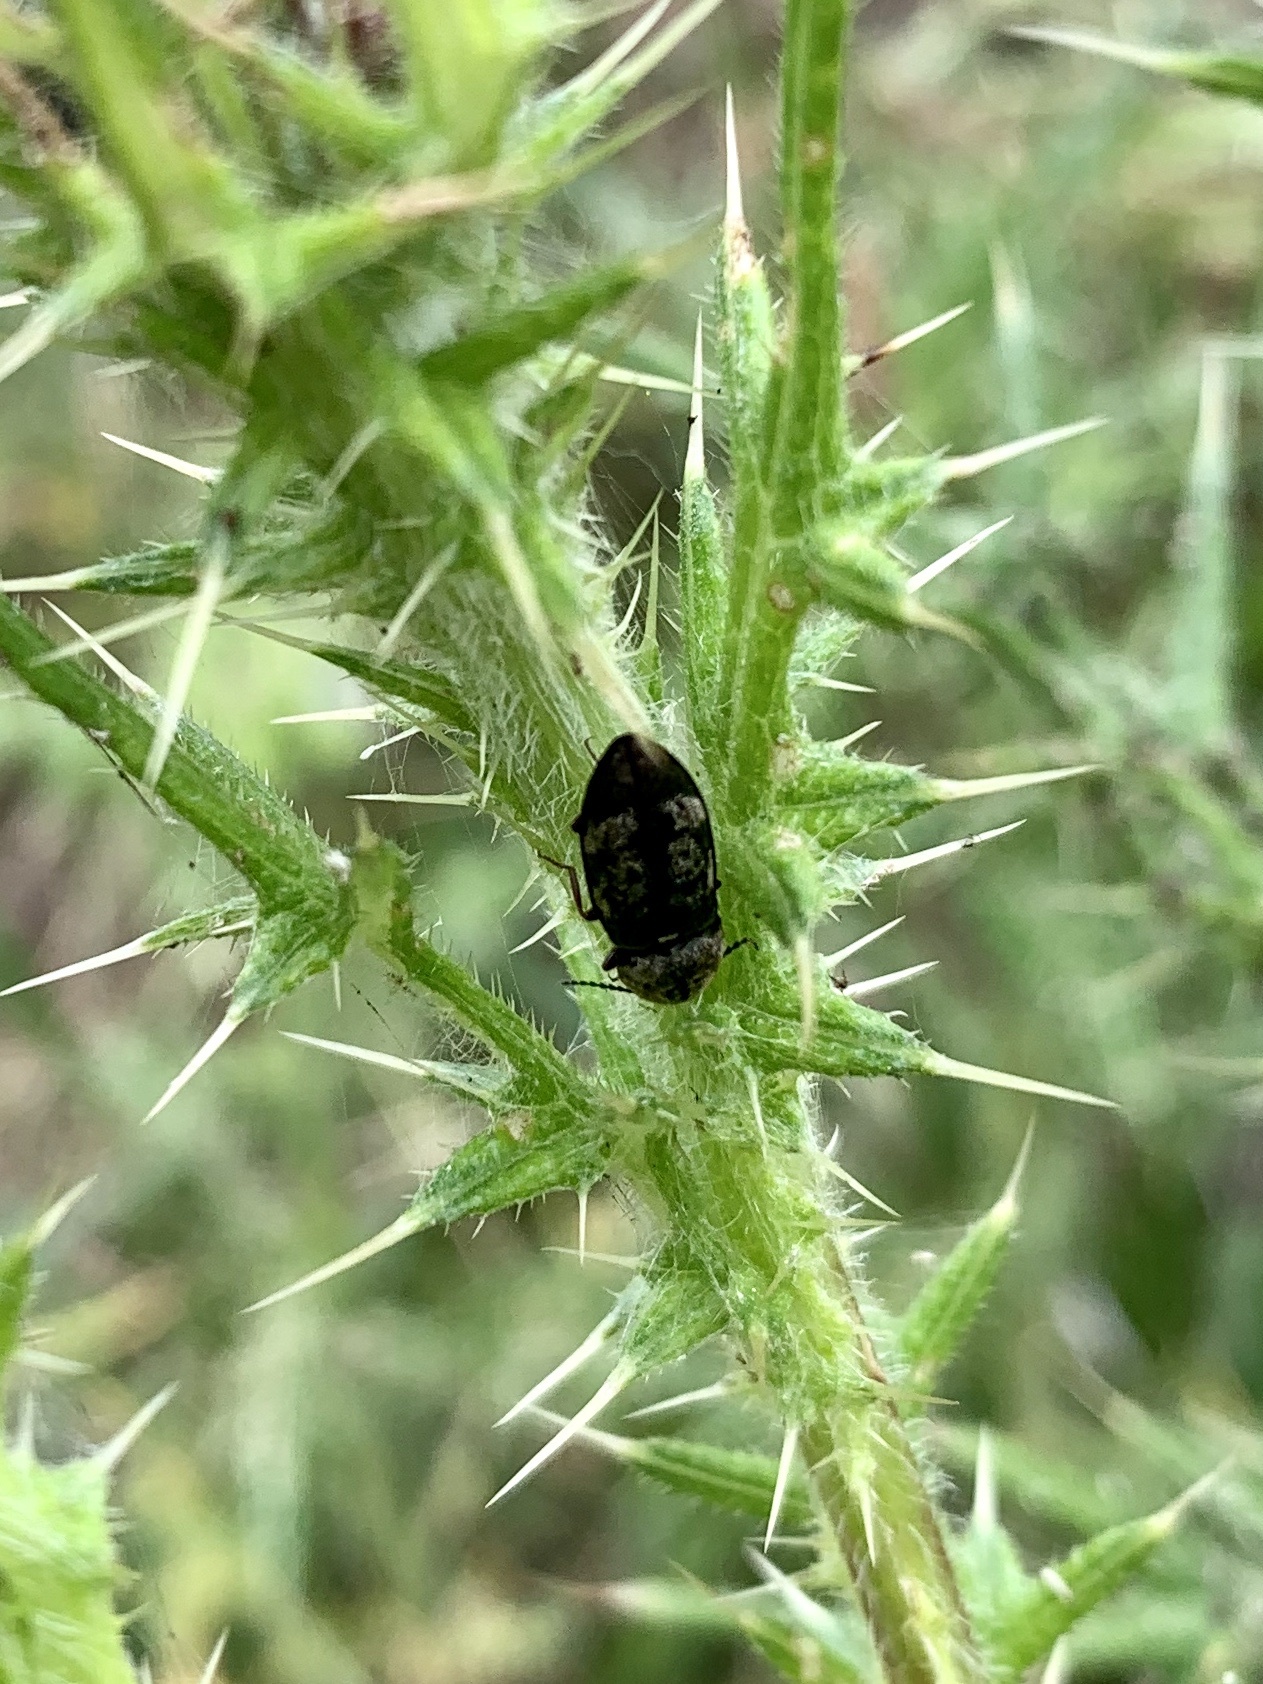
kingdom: Animalia
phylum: Arthropoda
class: Insecta
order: Coleoptera
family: Elateridae
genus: Agrypnus
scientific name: Agrypnus murinus
